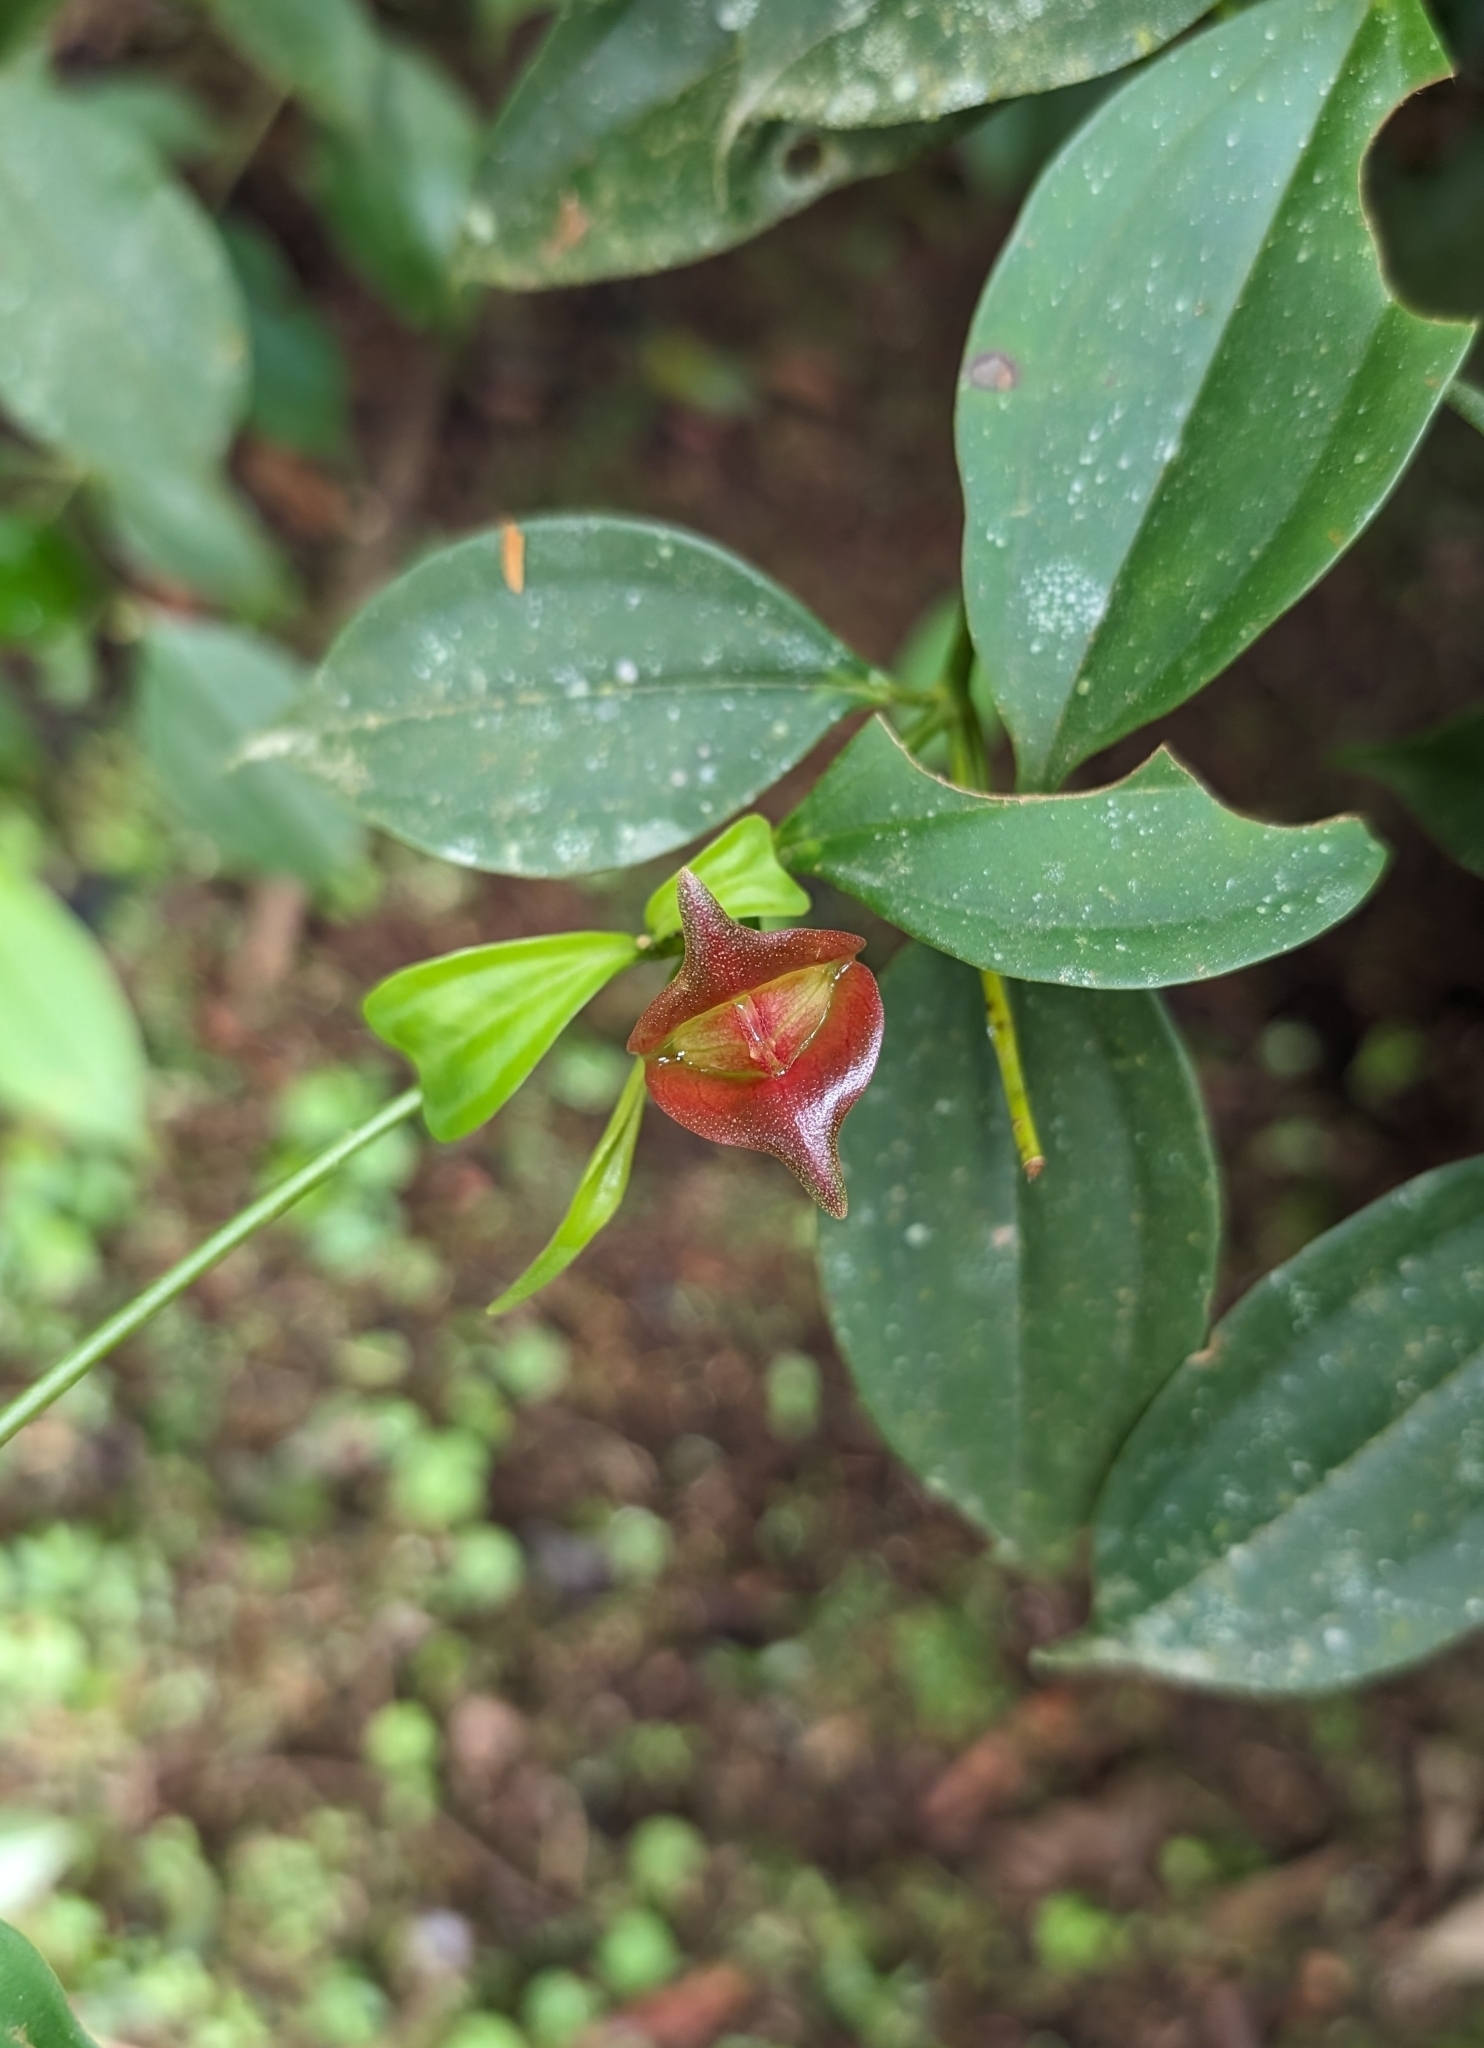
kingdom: Plantae
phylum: Tracheophyta
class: Magnoliopsida
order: Myrtales
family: Melastomataceae
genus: Blakea
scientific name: Blakea litoralis
